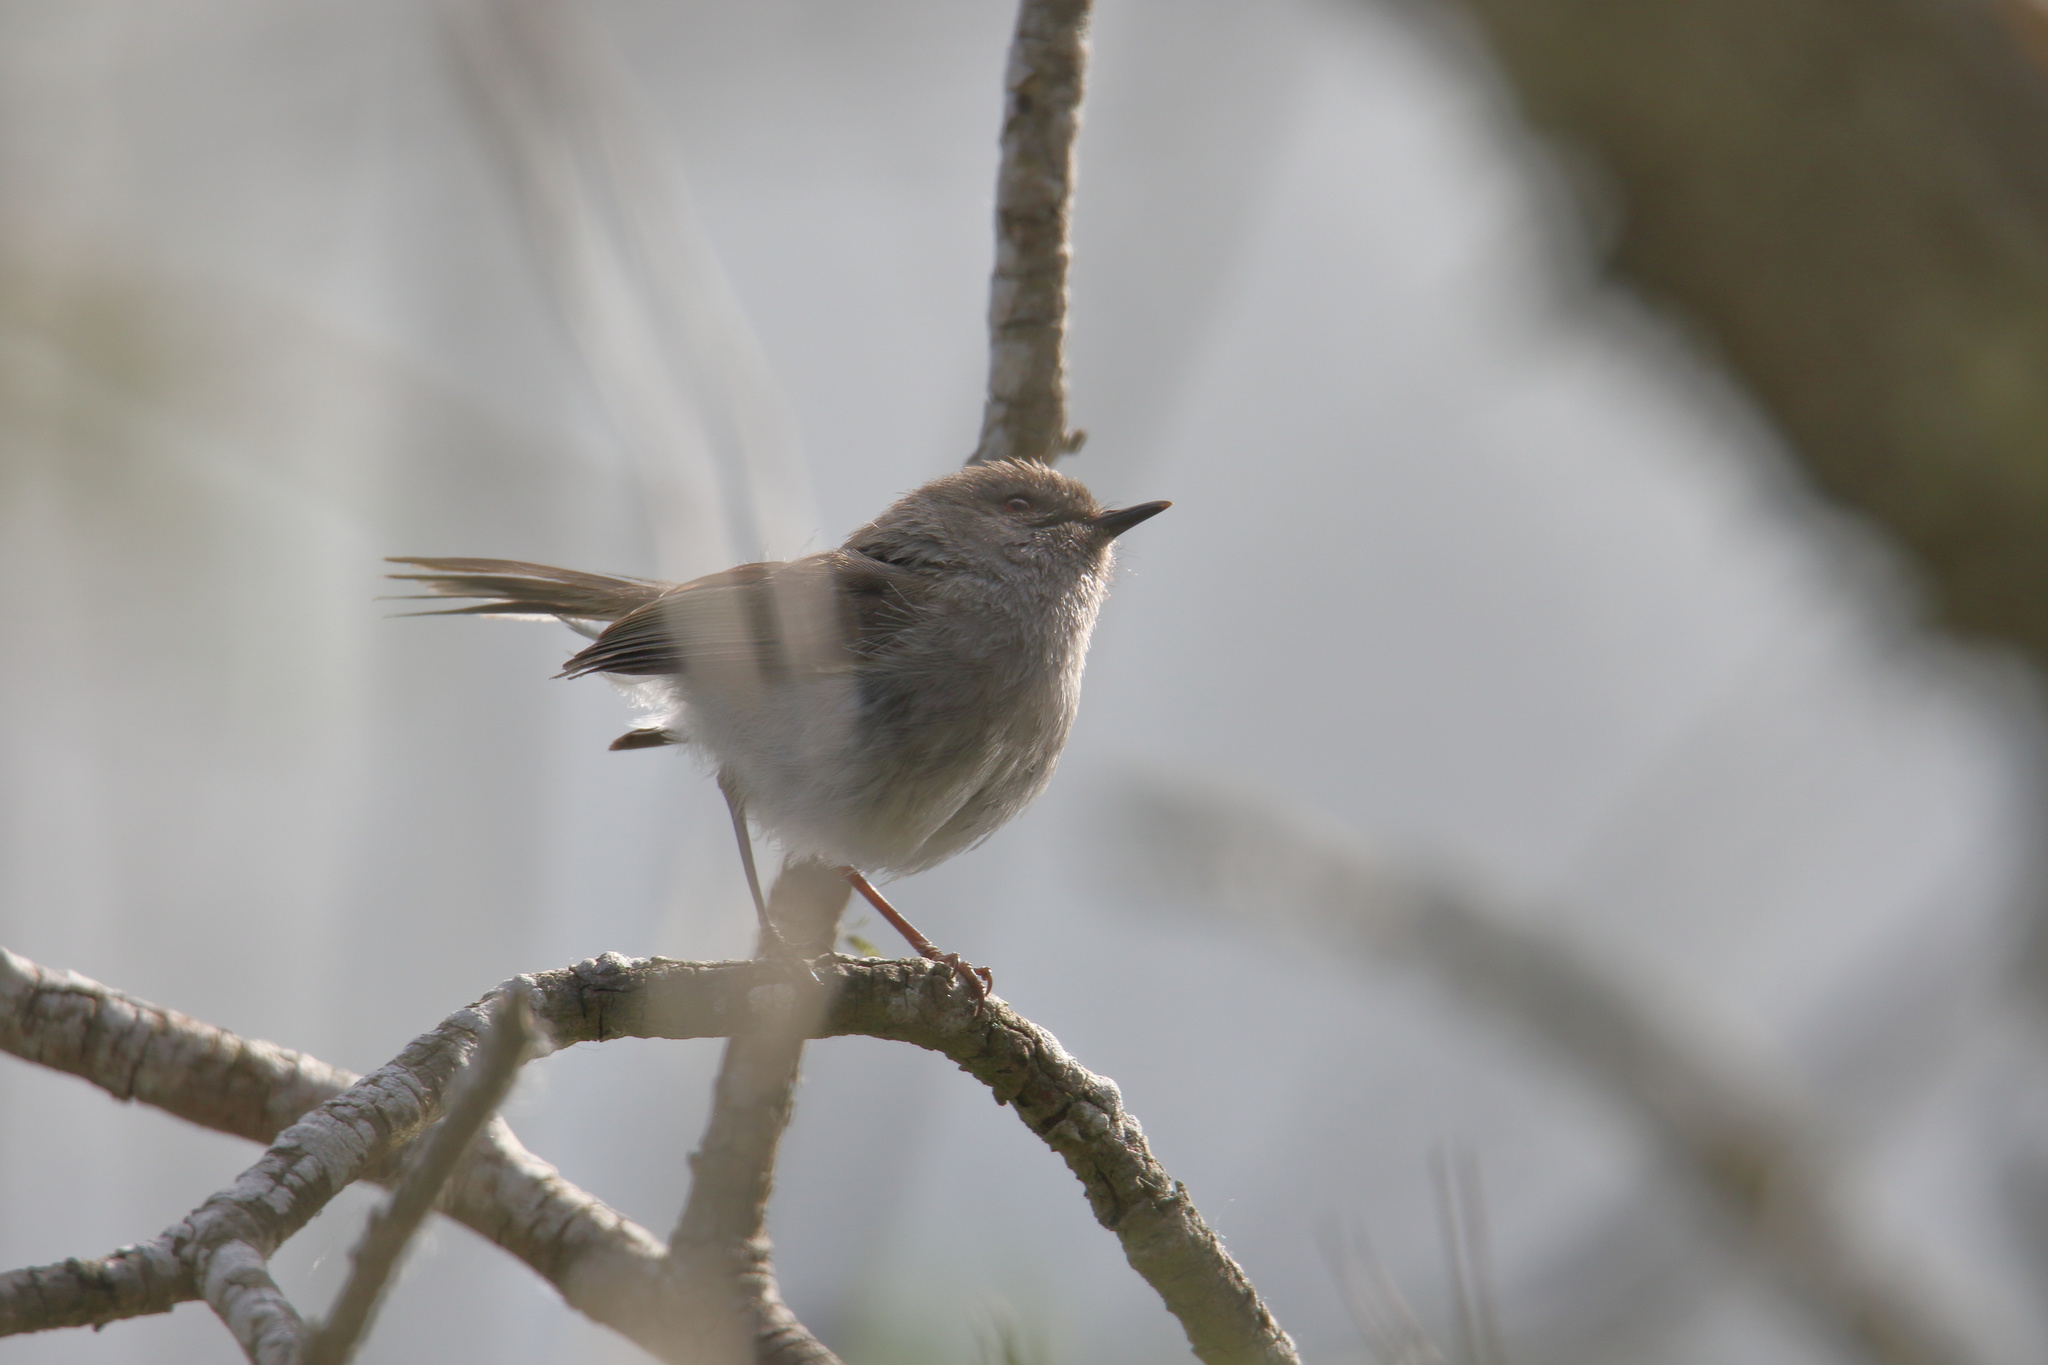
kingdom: Animalia
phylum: Chordata
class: Aves
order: Passeriformes
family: Acanthizidae
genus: Gerygone
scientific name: Gerygone igata
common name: Grey gerygone
